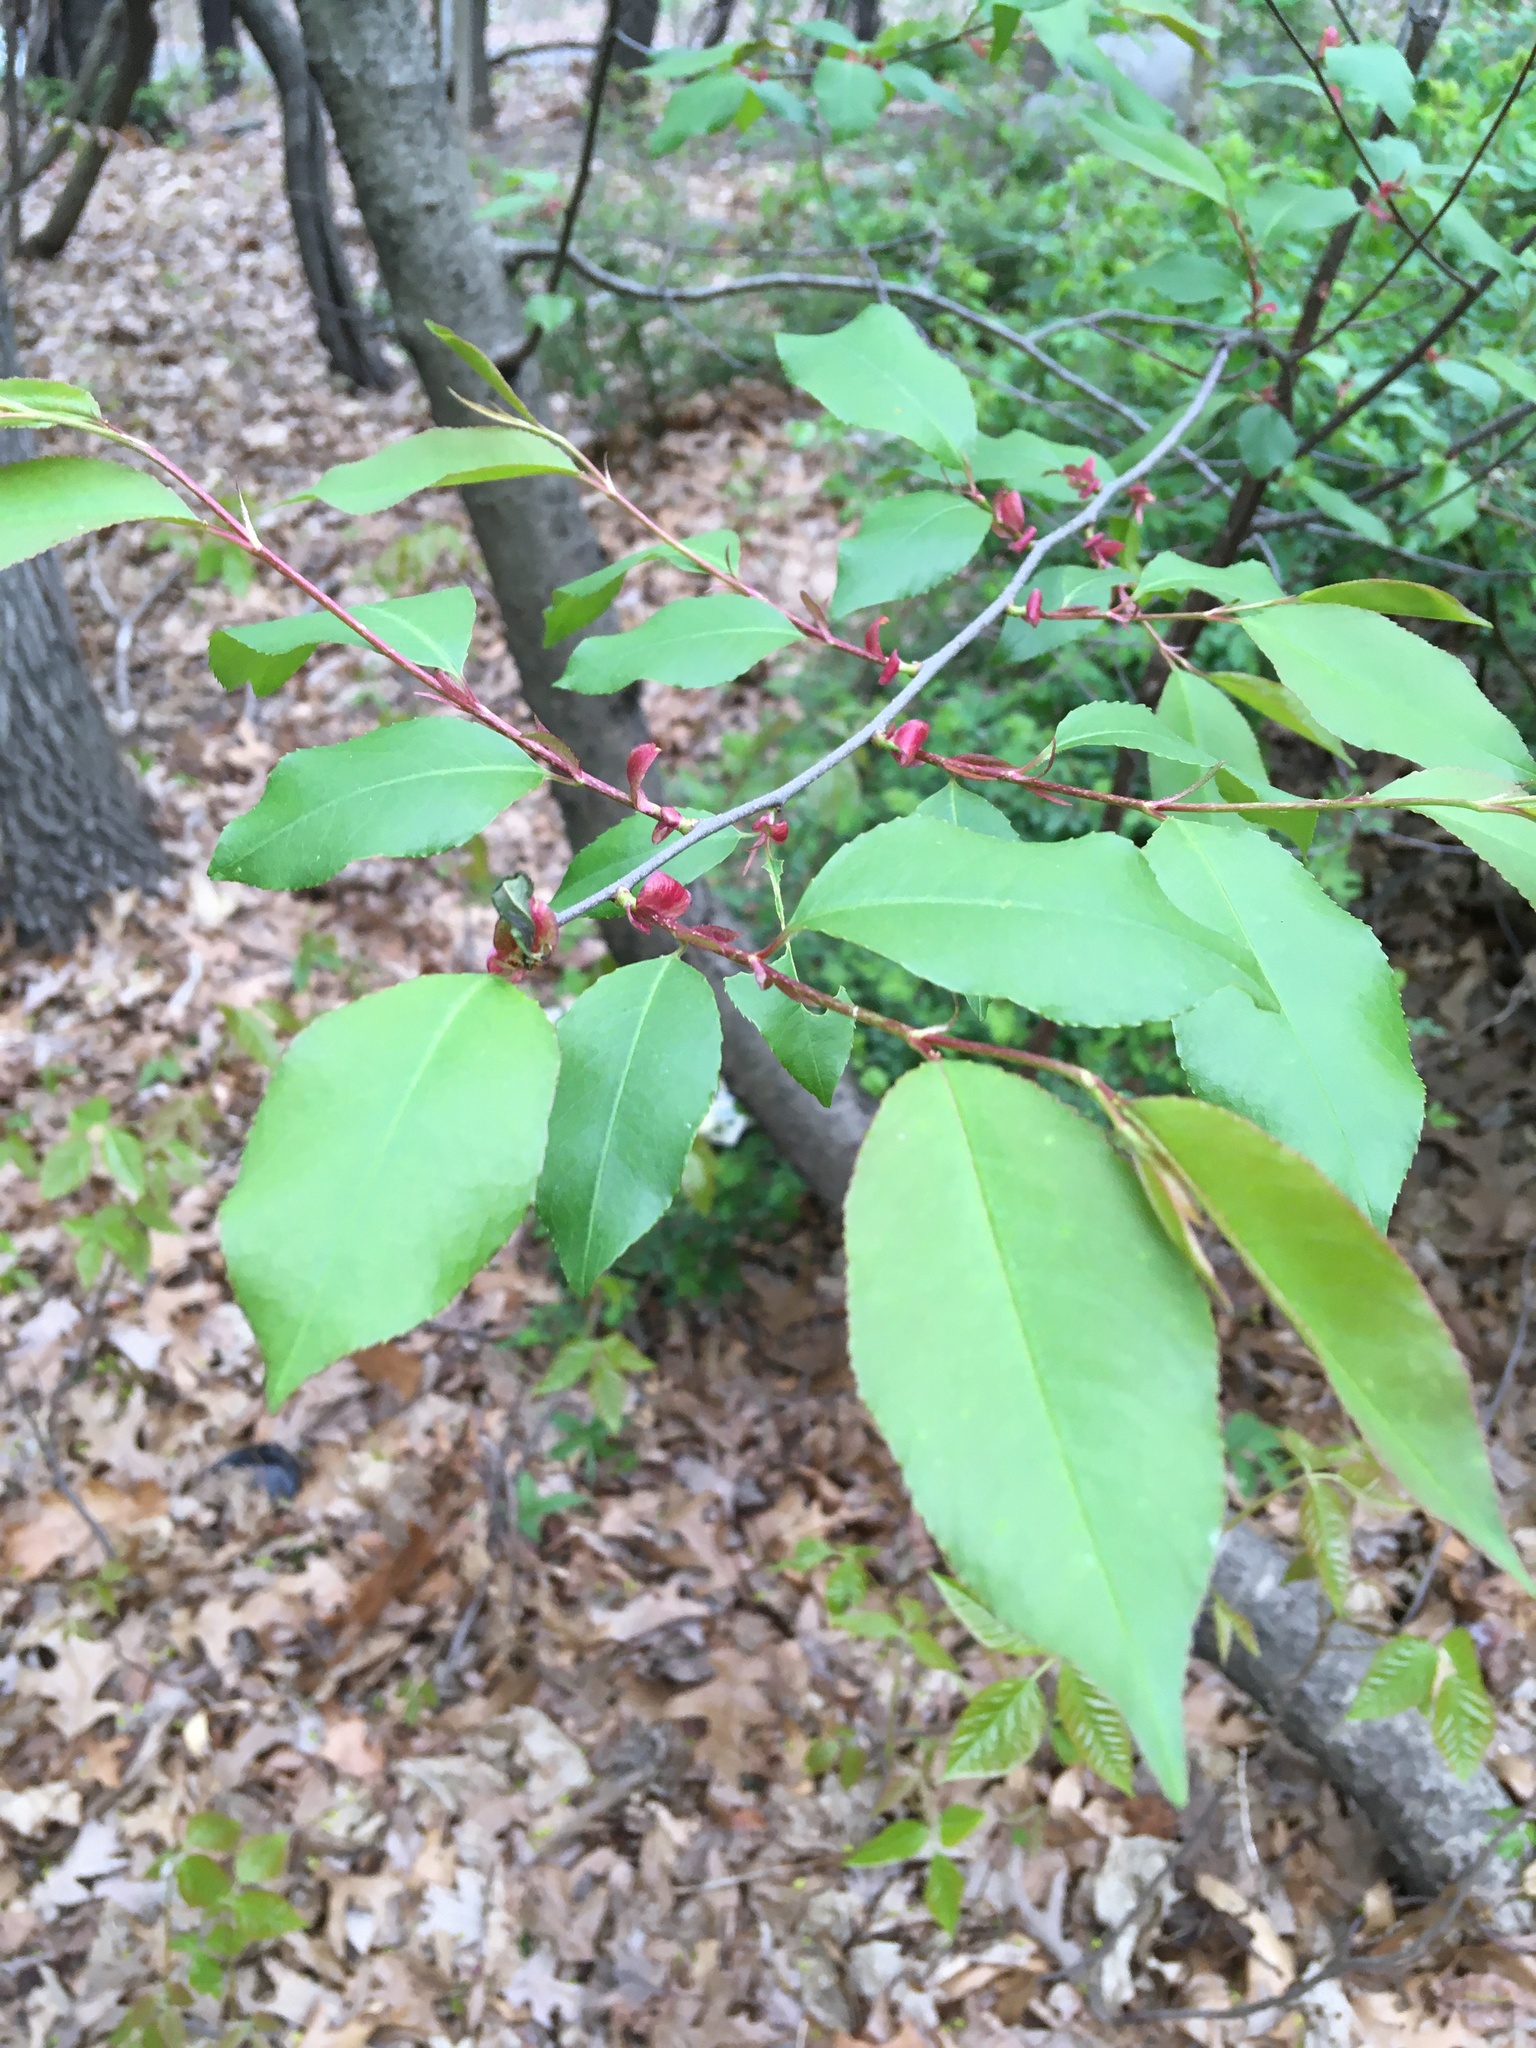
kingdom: Plantae
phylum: Tracheophyta
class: Magnoliopsida
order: Rosales
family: Rosaceae
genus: Prunus
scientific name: Prunus serotina
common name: Black cherry
